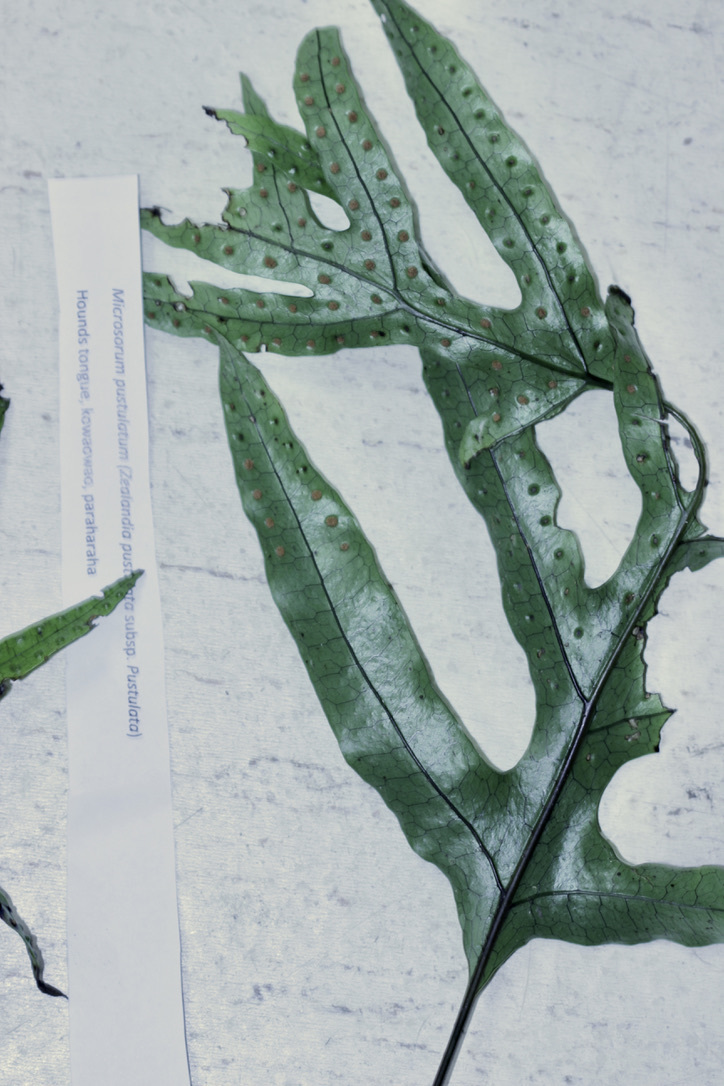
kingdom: Plantae
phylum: Tracheophyta
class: Polypodiopsida
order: Polypodiales
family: Polypodiaceae
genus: Lecanopteris
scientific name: Lecanopteris pustulata
